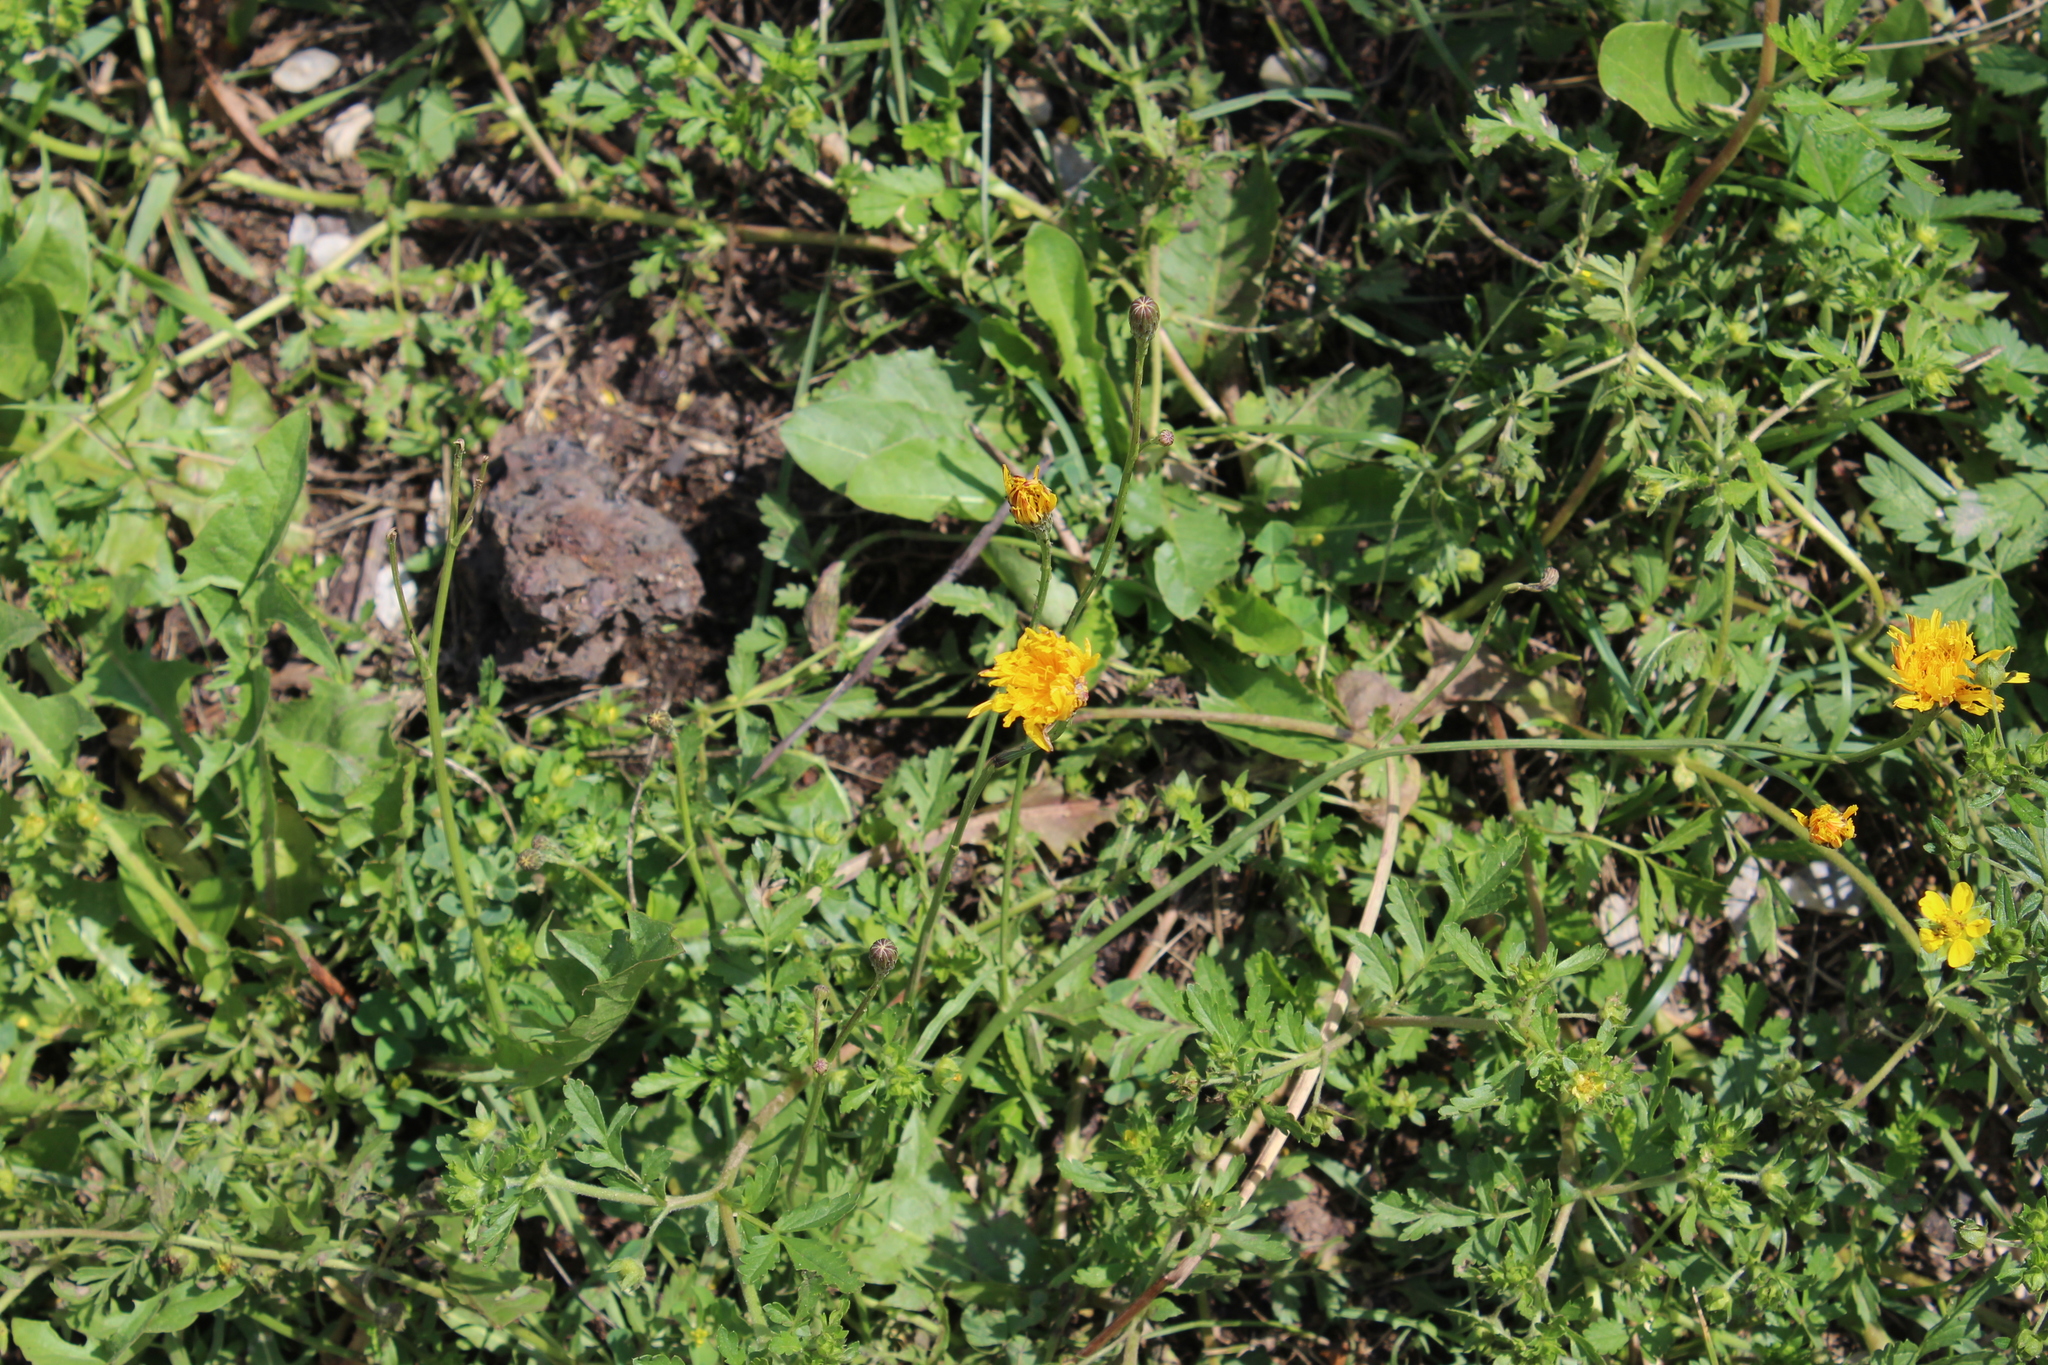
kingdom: Plantae
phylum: Tracheophyta
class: Magnoliopsida
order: Asterales
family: Asteraceae
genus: Scorzoneroides
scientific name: Scorzoneroides autumnalis
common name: Autumn hawkbit
